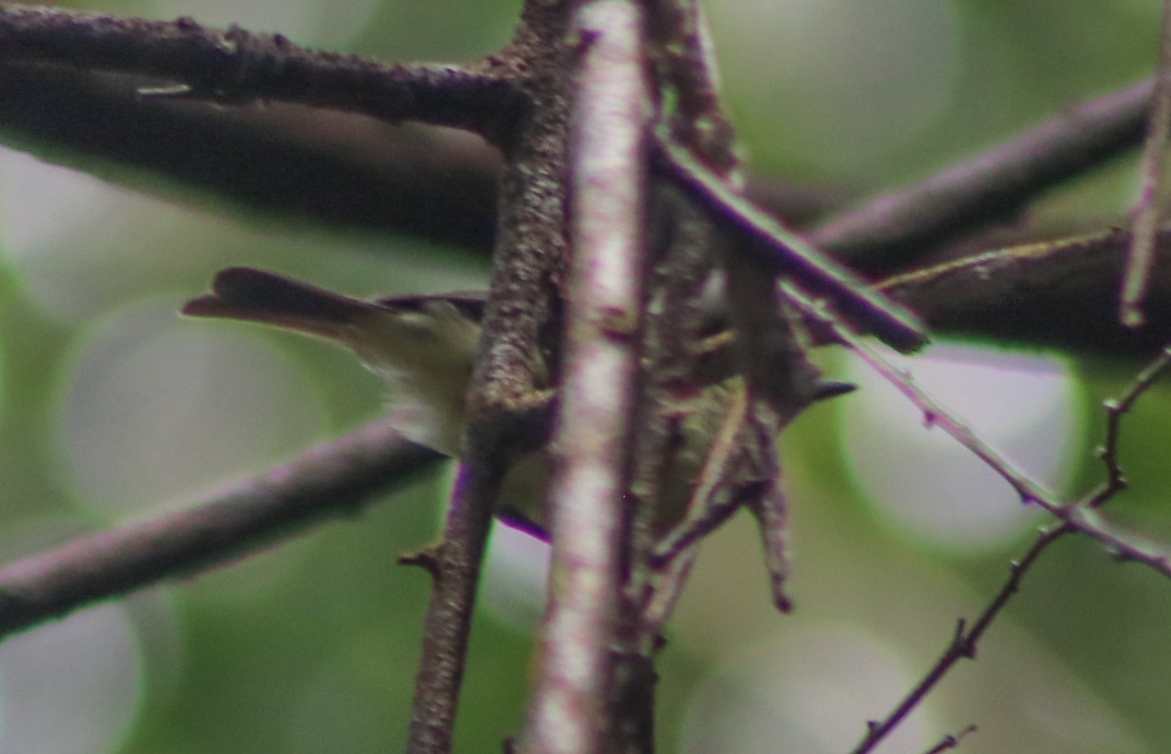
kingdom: Animalia
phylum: Chordata
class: Aves
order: Passeriformes
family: Acanthizidae
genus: Gerygone
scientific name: Gerygone palpebrosa
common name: Fairy gerygone
